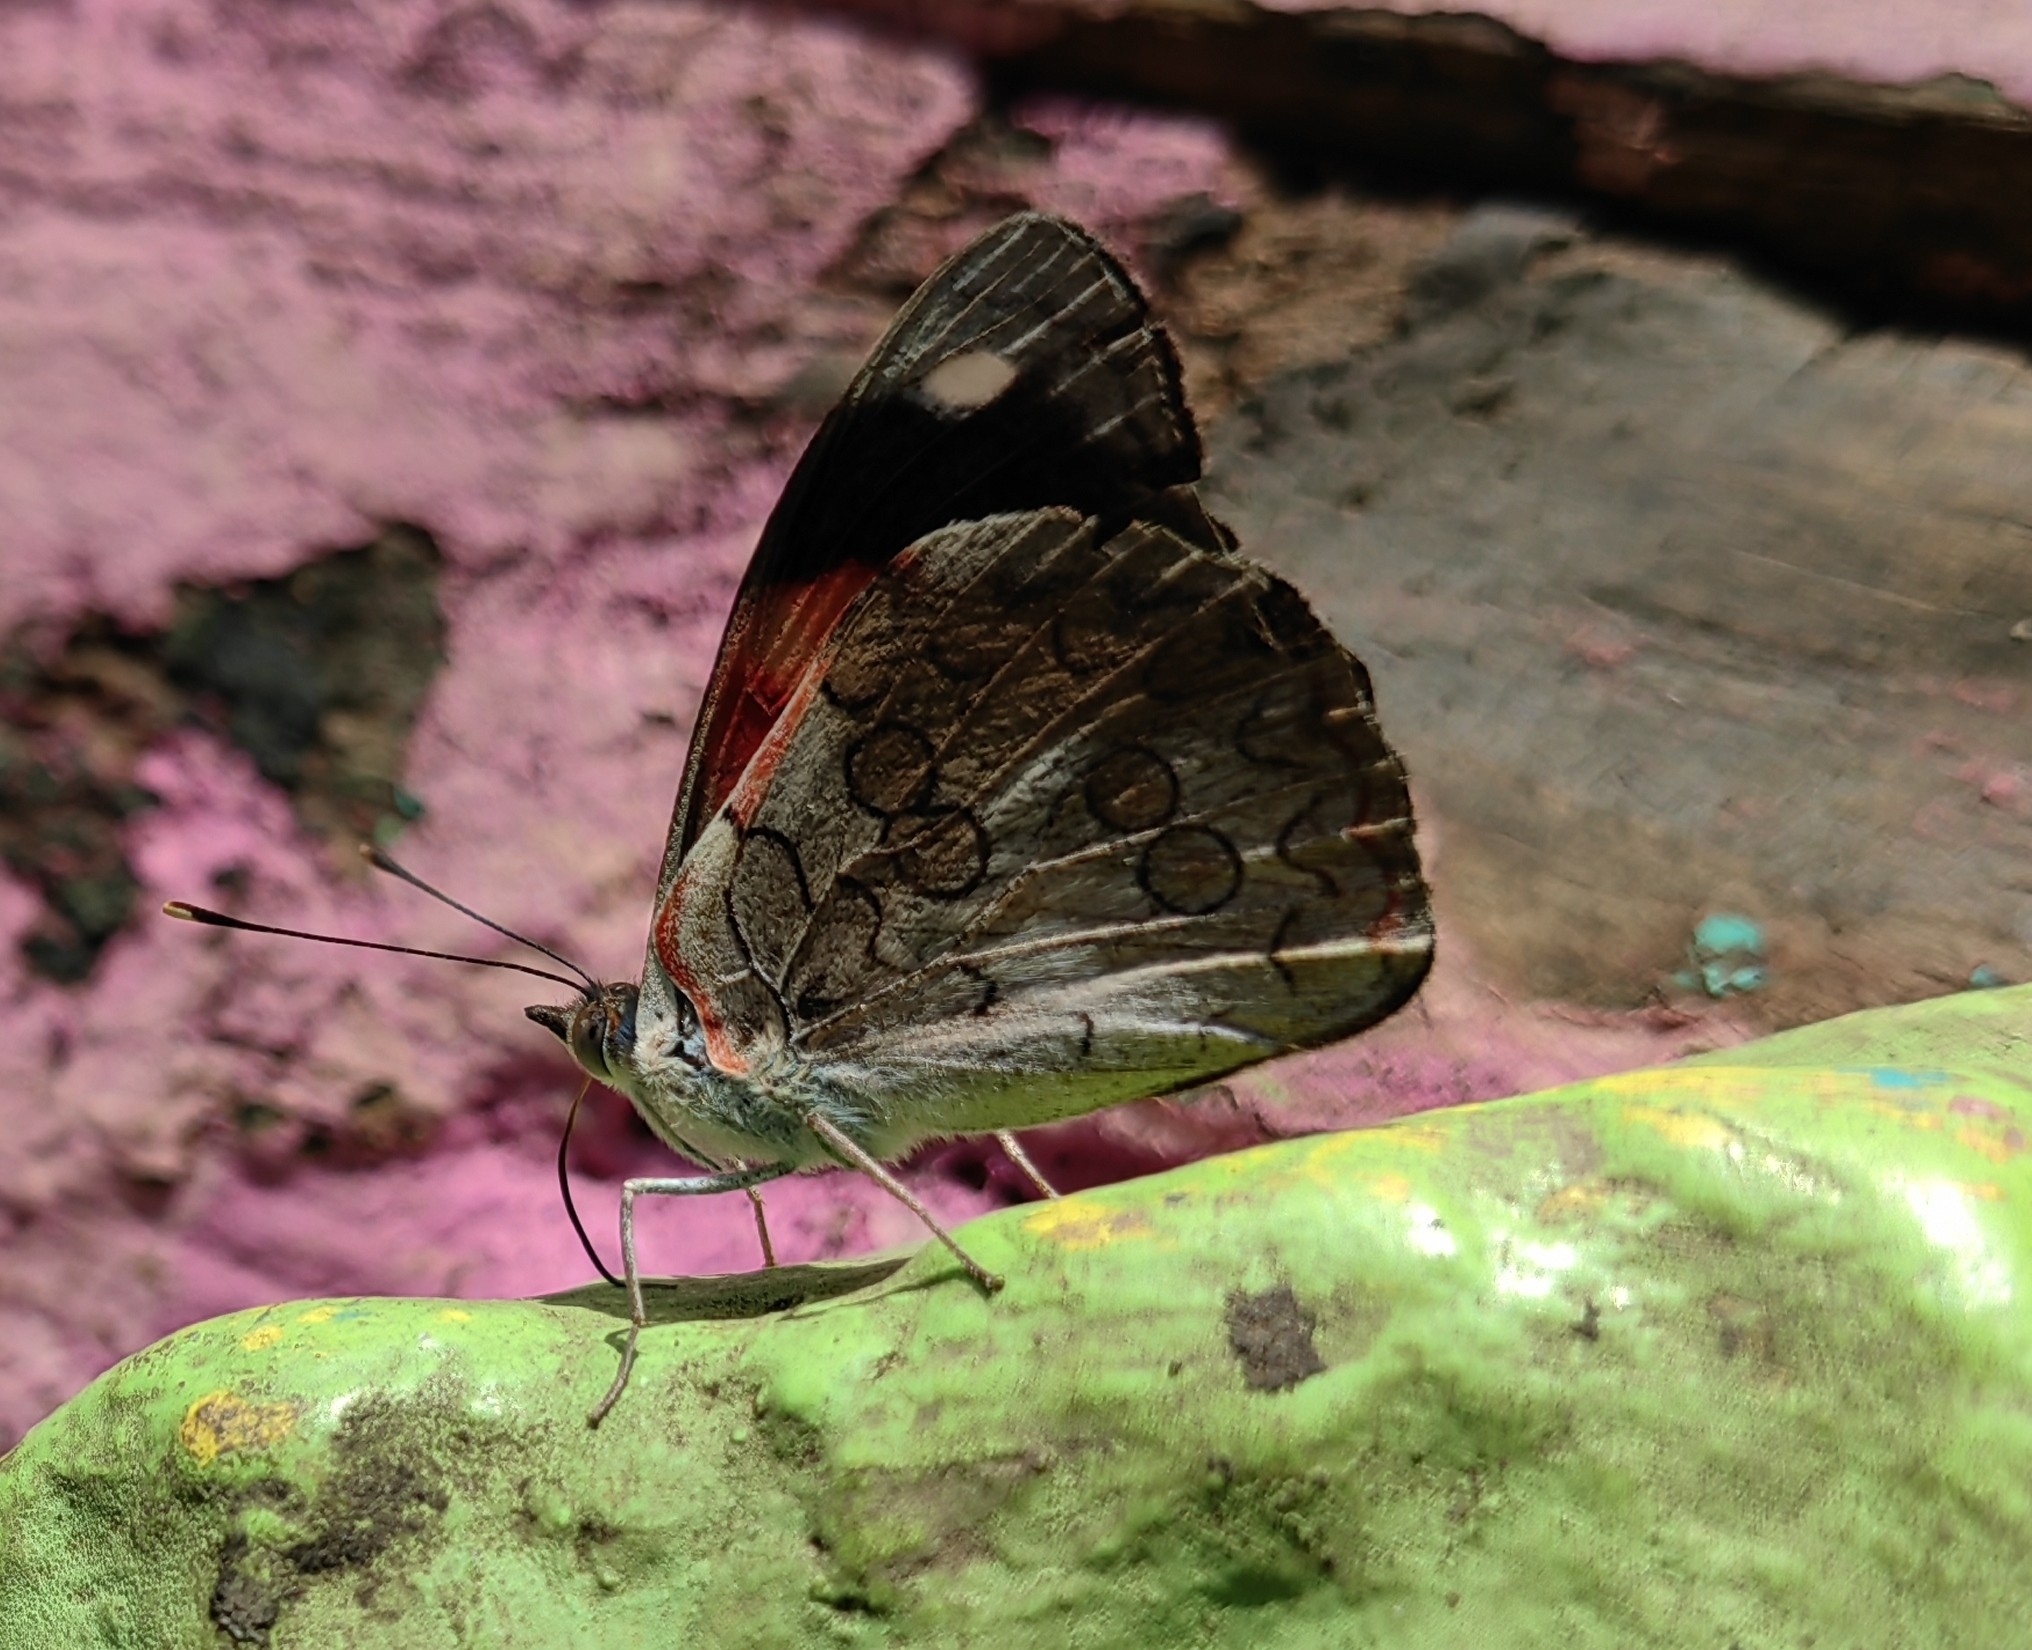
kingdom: Animalia
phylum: Arthropoda
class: Insecta
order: Lepidoptera
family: Nymphalidae
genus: Diaethria
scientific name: Diaethria pandama
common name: Orange-striped eighty-eight
